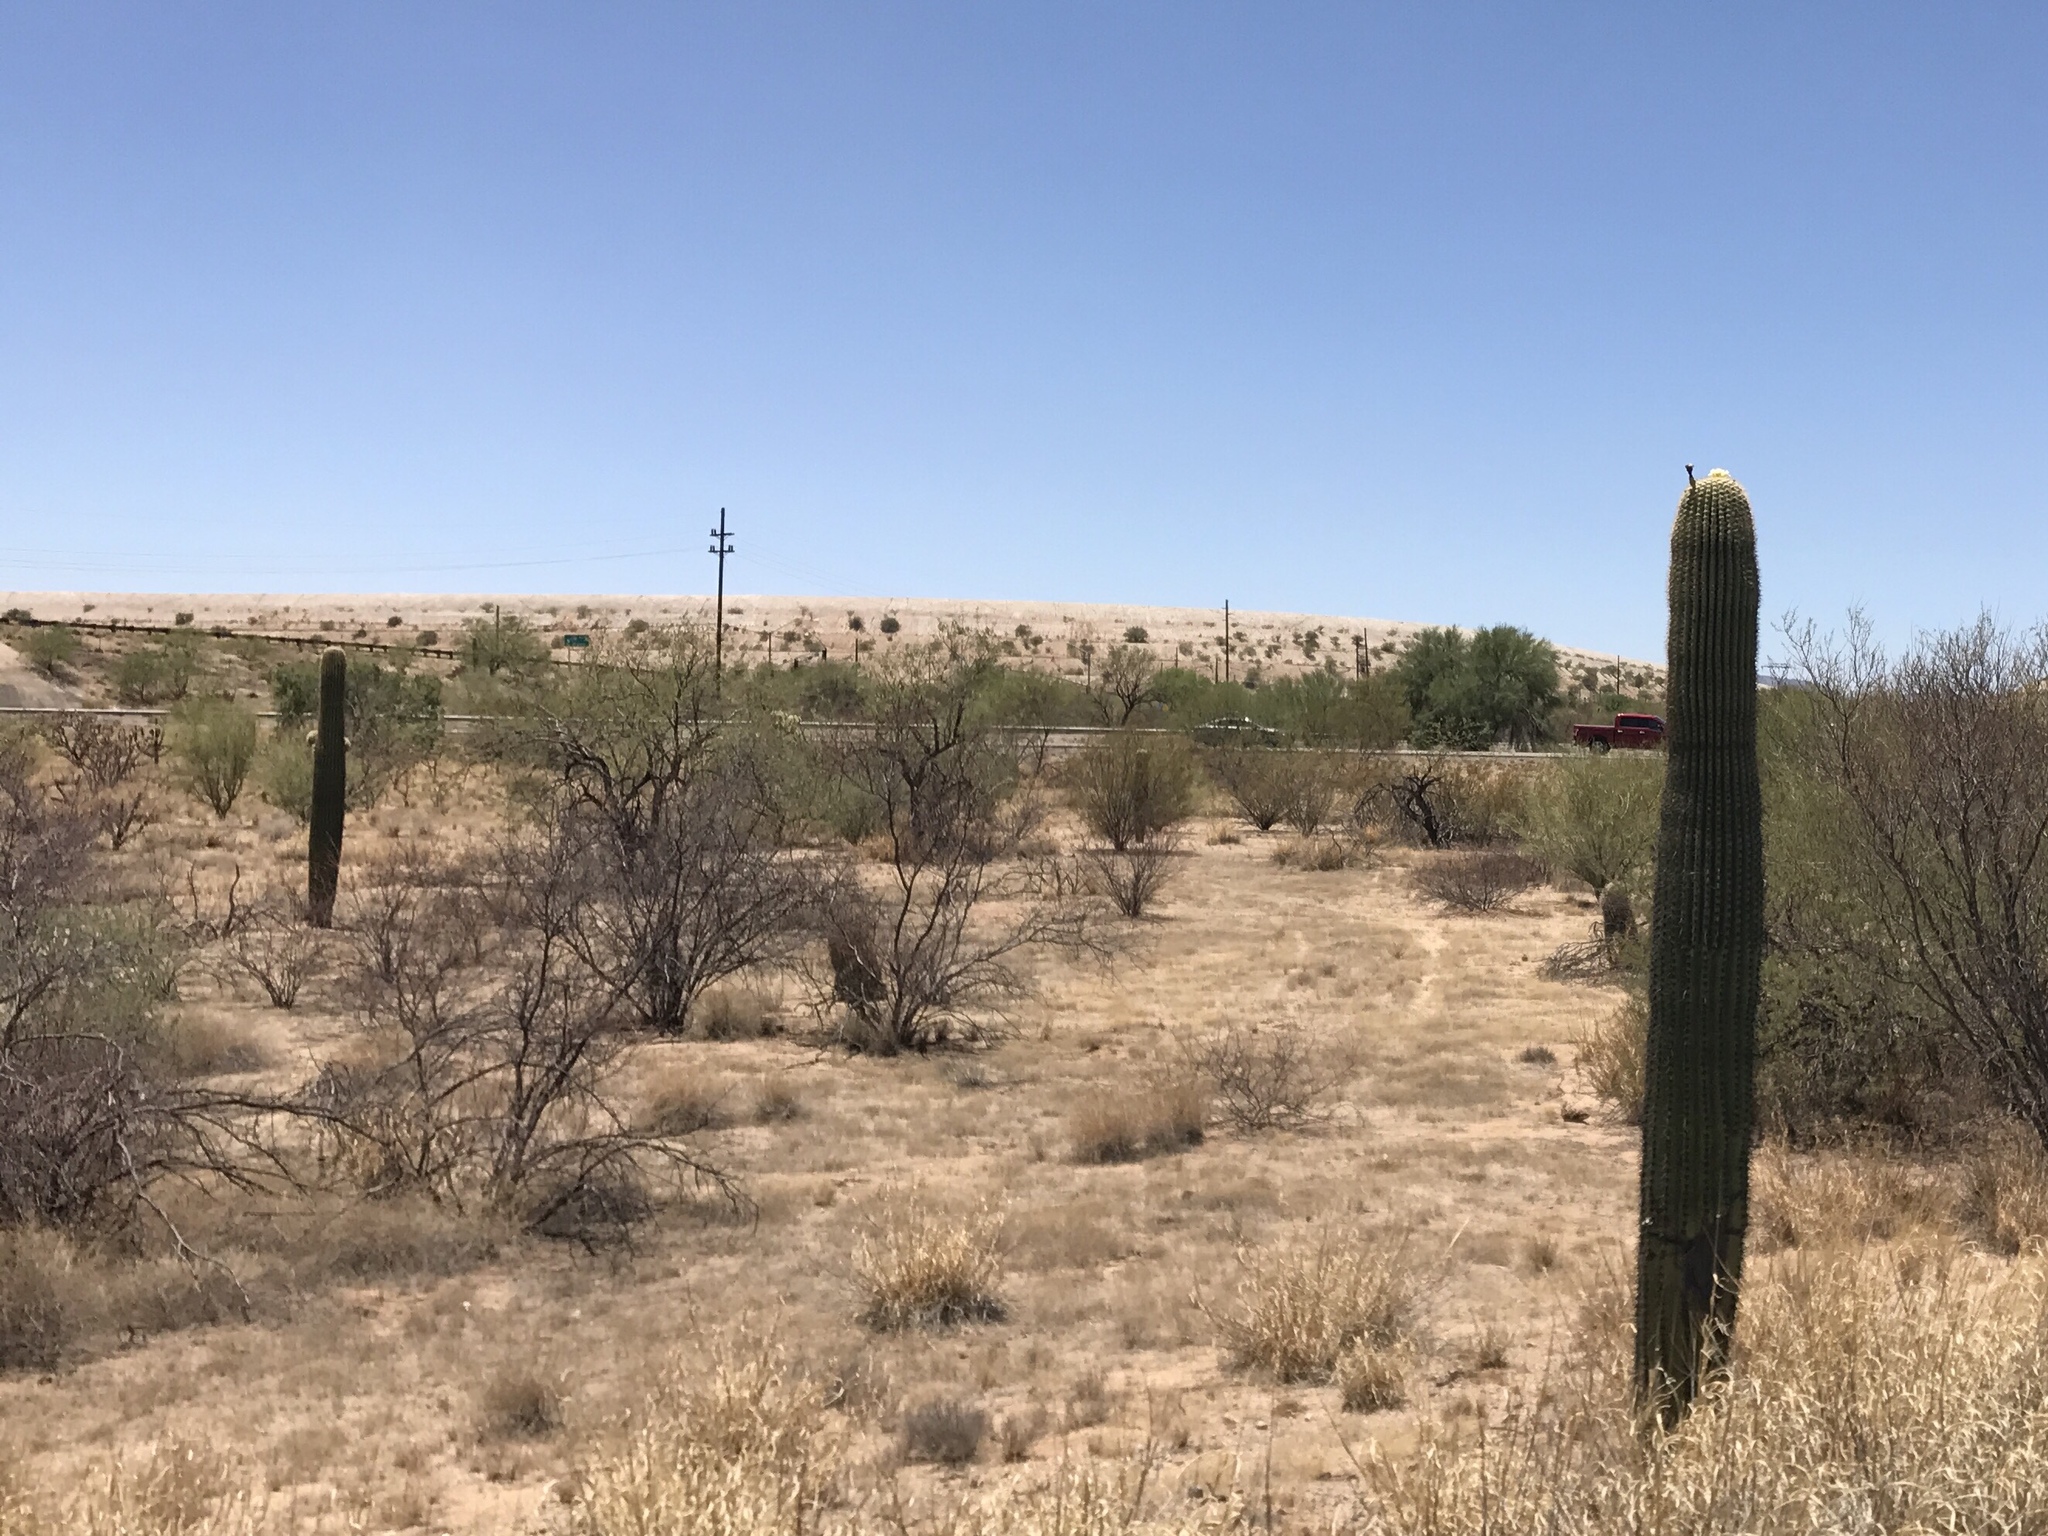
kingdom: Plantae
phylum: Tracheophyta
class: Magnoliopsida
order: Caryophyllales
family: Cactaceae
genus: Carnegiea
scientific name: Carnegiea gigantea
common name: Saguaro
